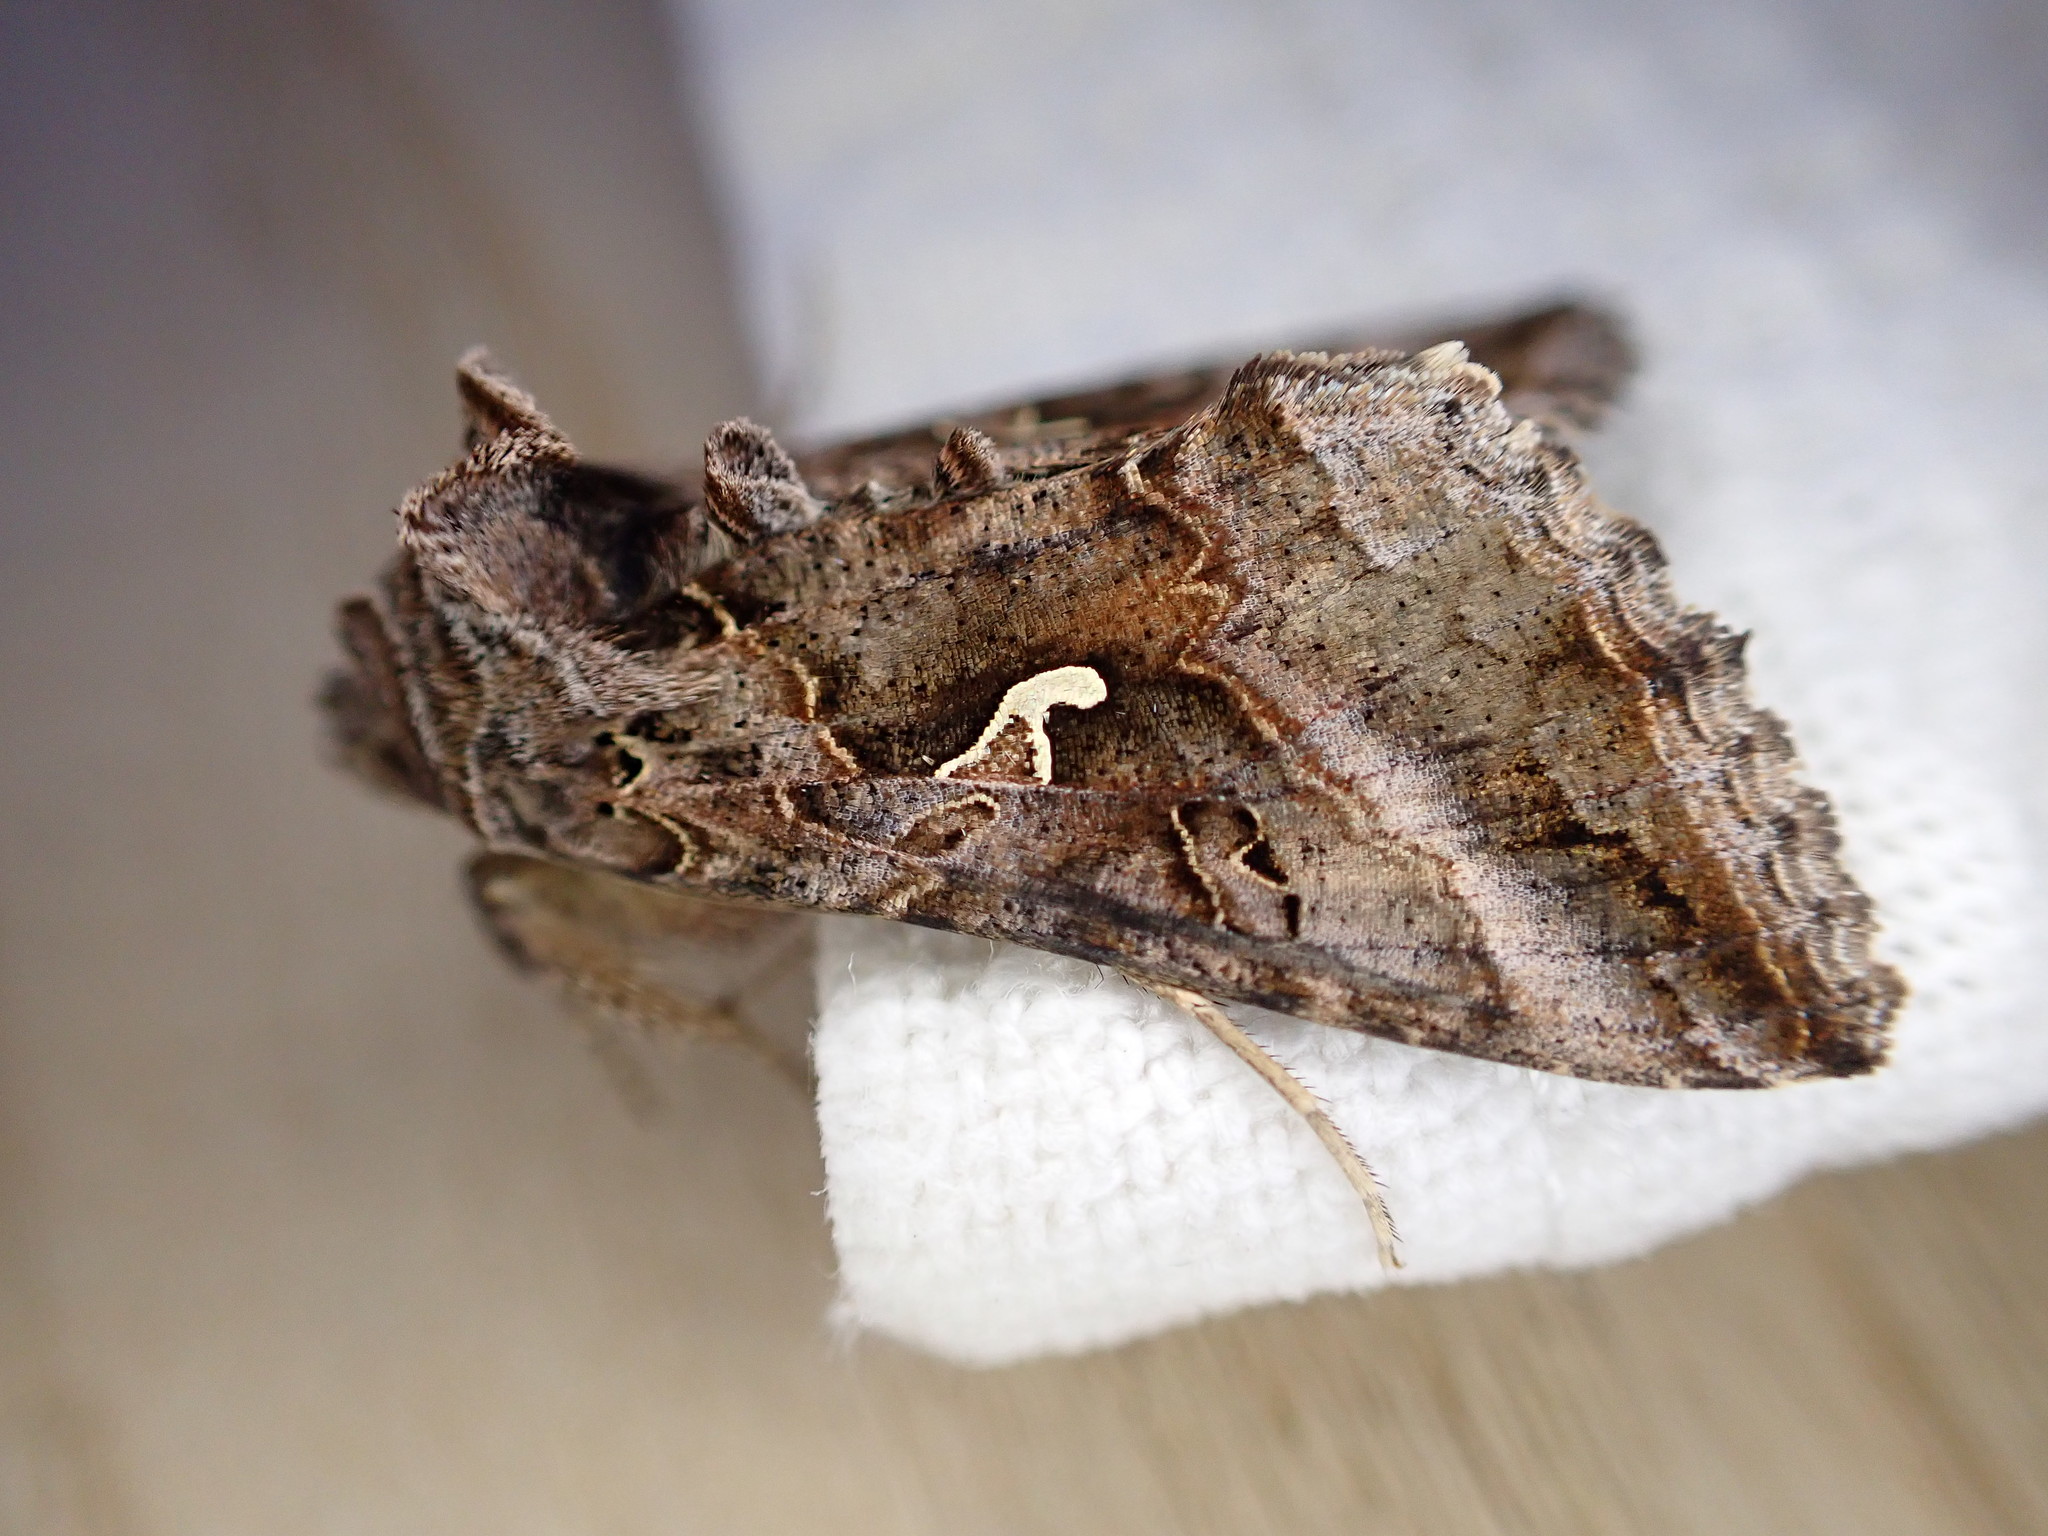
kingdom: Animalia
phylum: Arthropoda
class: Insecta
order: Lepidoptera
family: Noctuidae
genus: Autographa
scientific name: Autographa gamma
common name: Silver y
